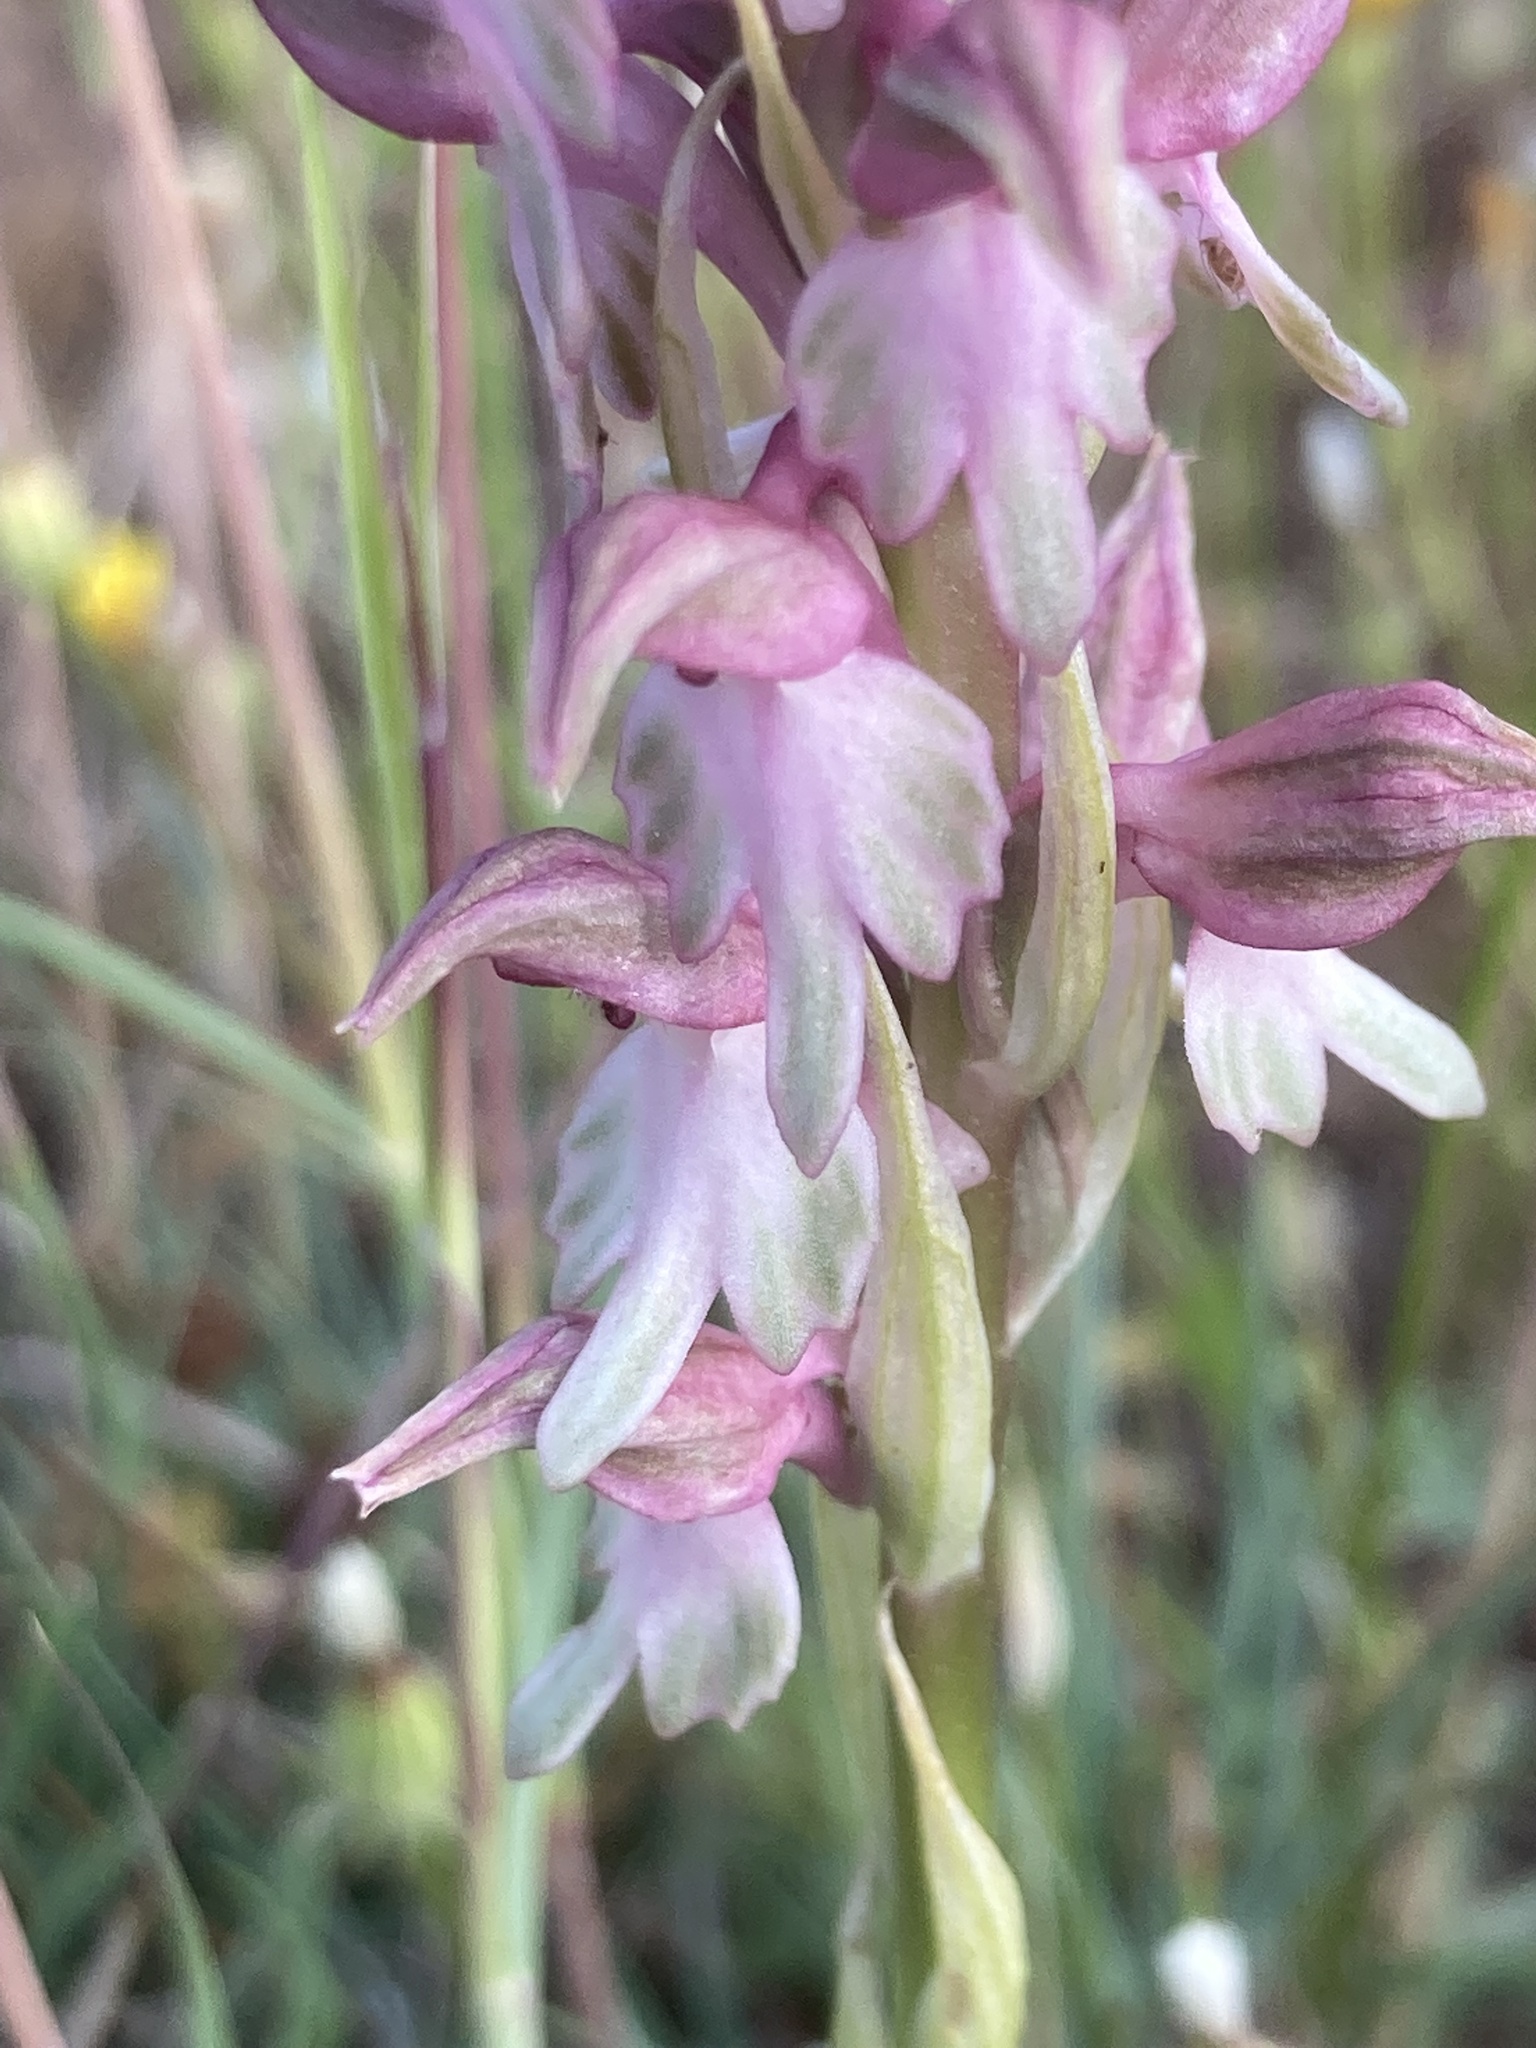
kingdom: Plantae
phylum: Tracheophyta
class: Liliopsida
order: Asparagales
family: Orchidaceae
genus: Anacamptis
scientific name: Anacamptis sancta
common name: Holy orchid
